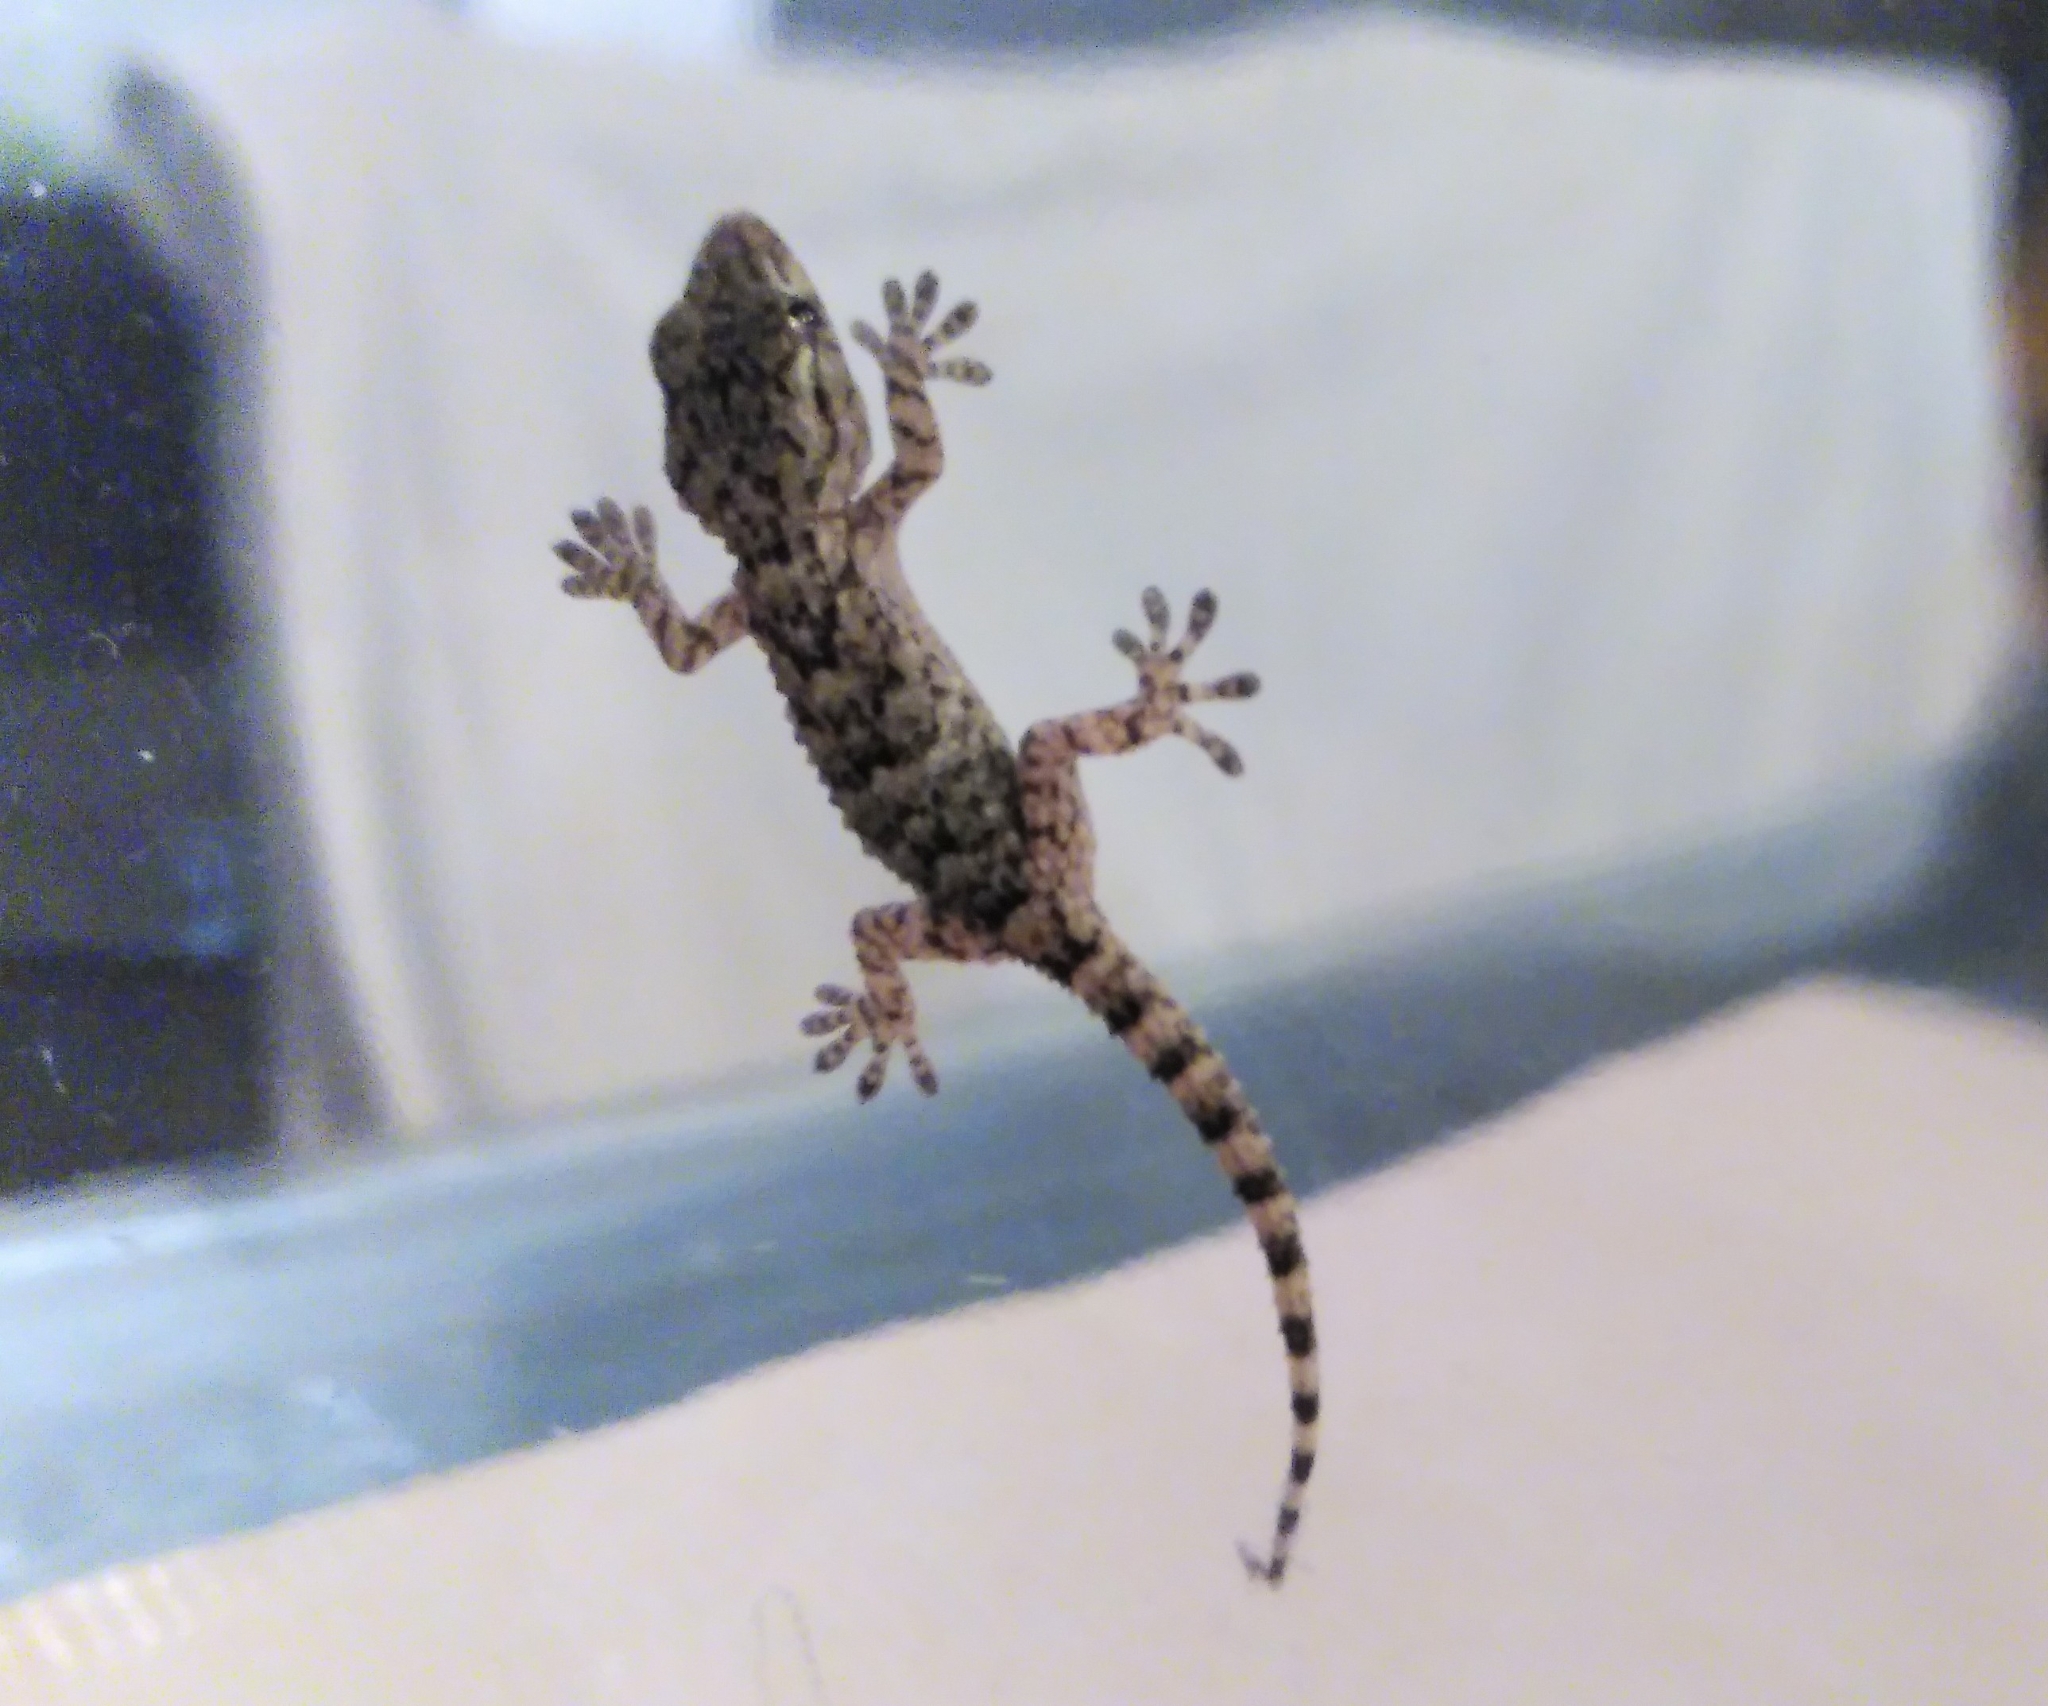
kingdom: Animalia
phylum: Chordata
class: Squamata
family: Phyllodactylidae
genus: Tarentola
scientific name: Tarentola mauritanica
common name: Moorish gecko
